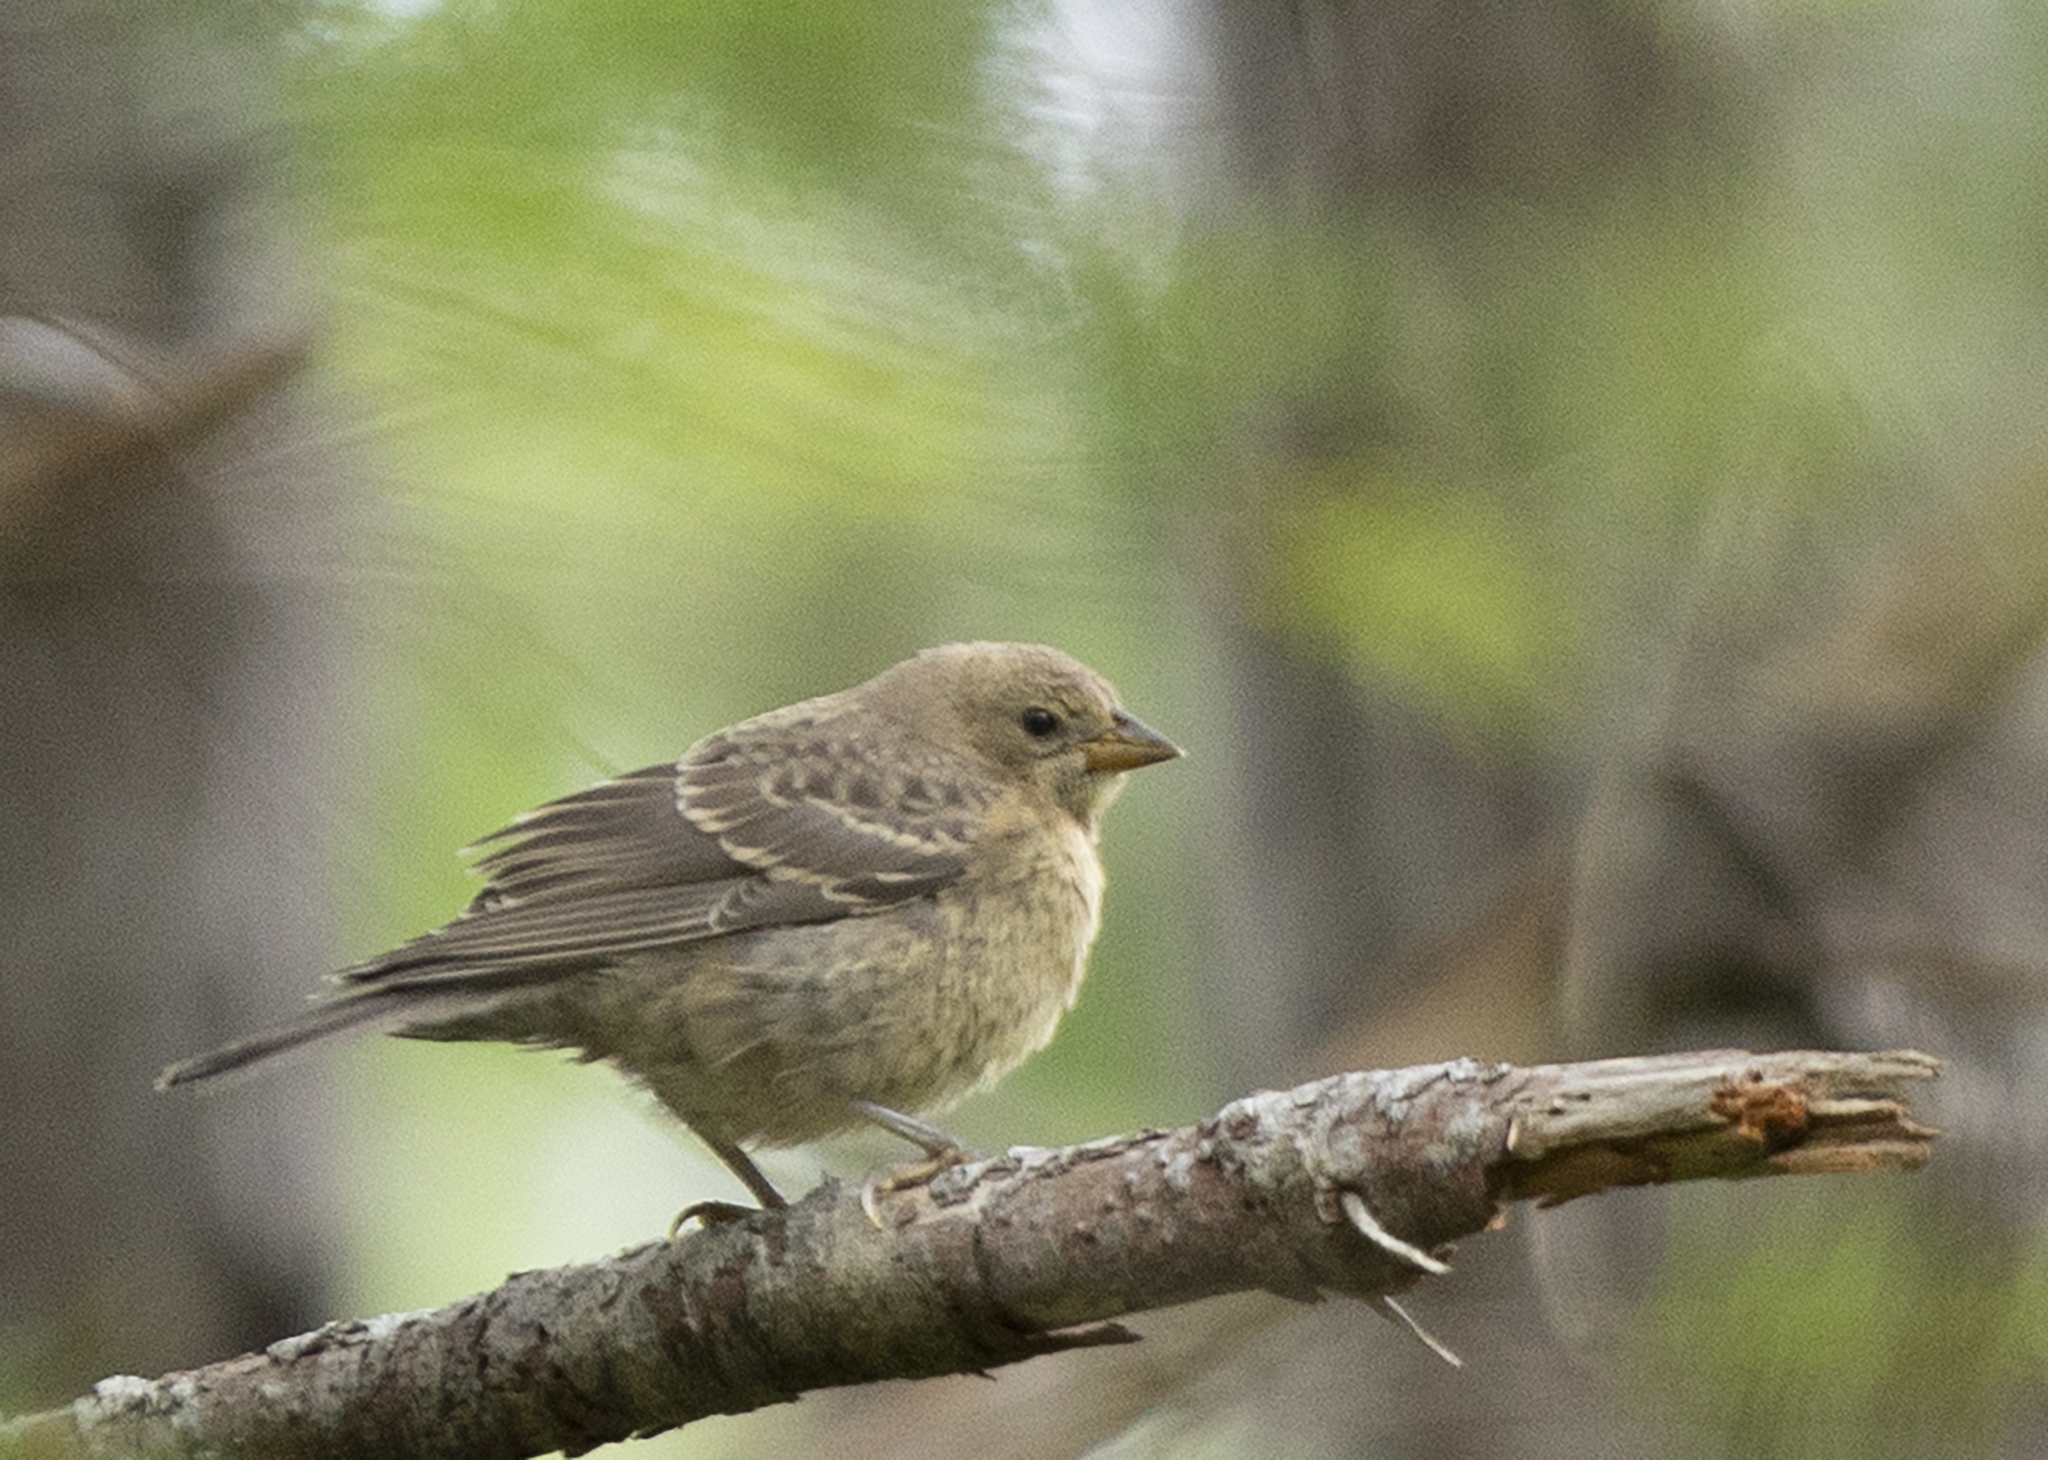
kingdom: Animalia
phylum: Chordata
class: Aves
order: Passeriformes
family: Icteridae
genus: Molothrus
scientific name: Molothrus ater
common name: Brown-headed cowbird
